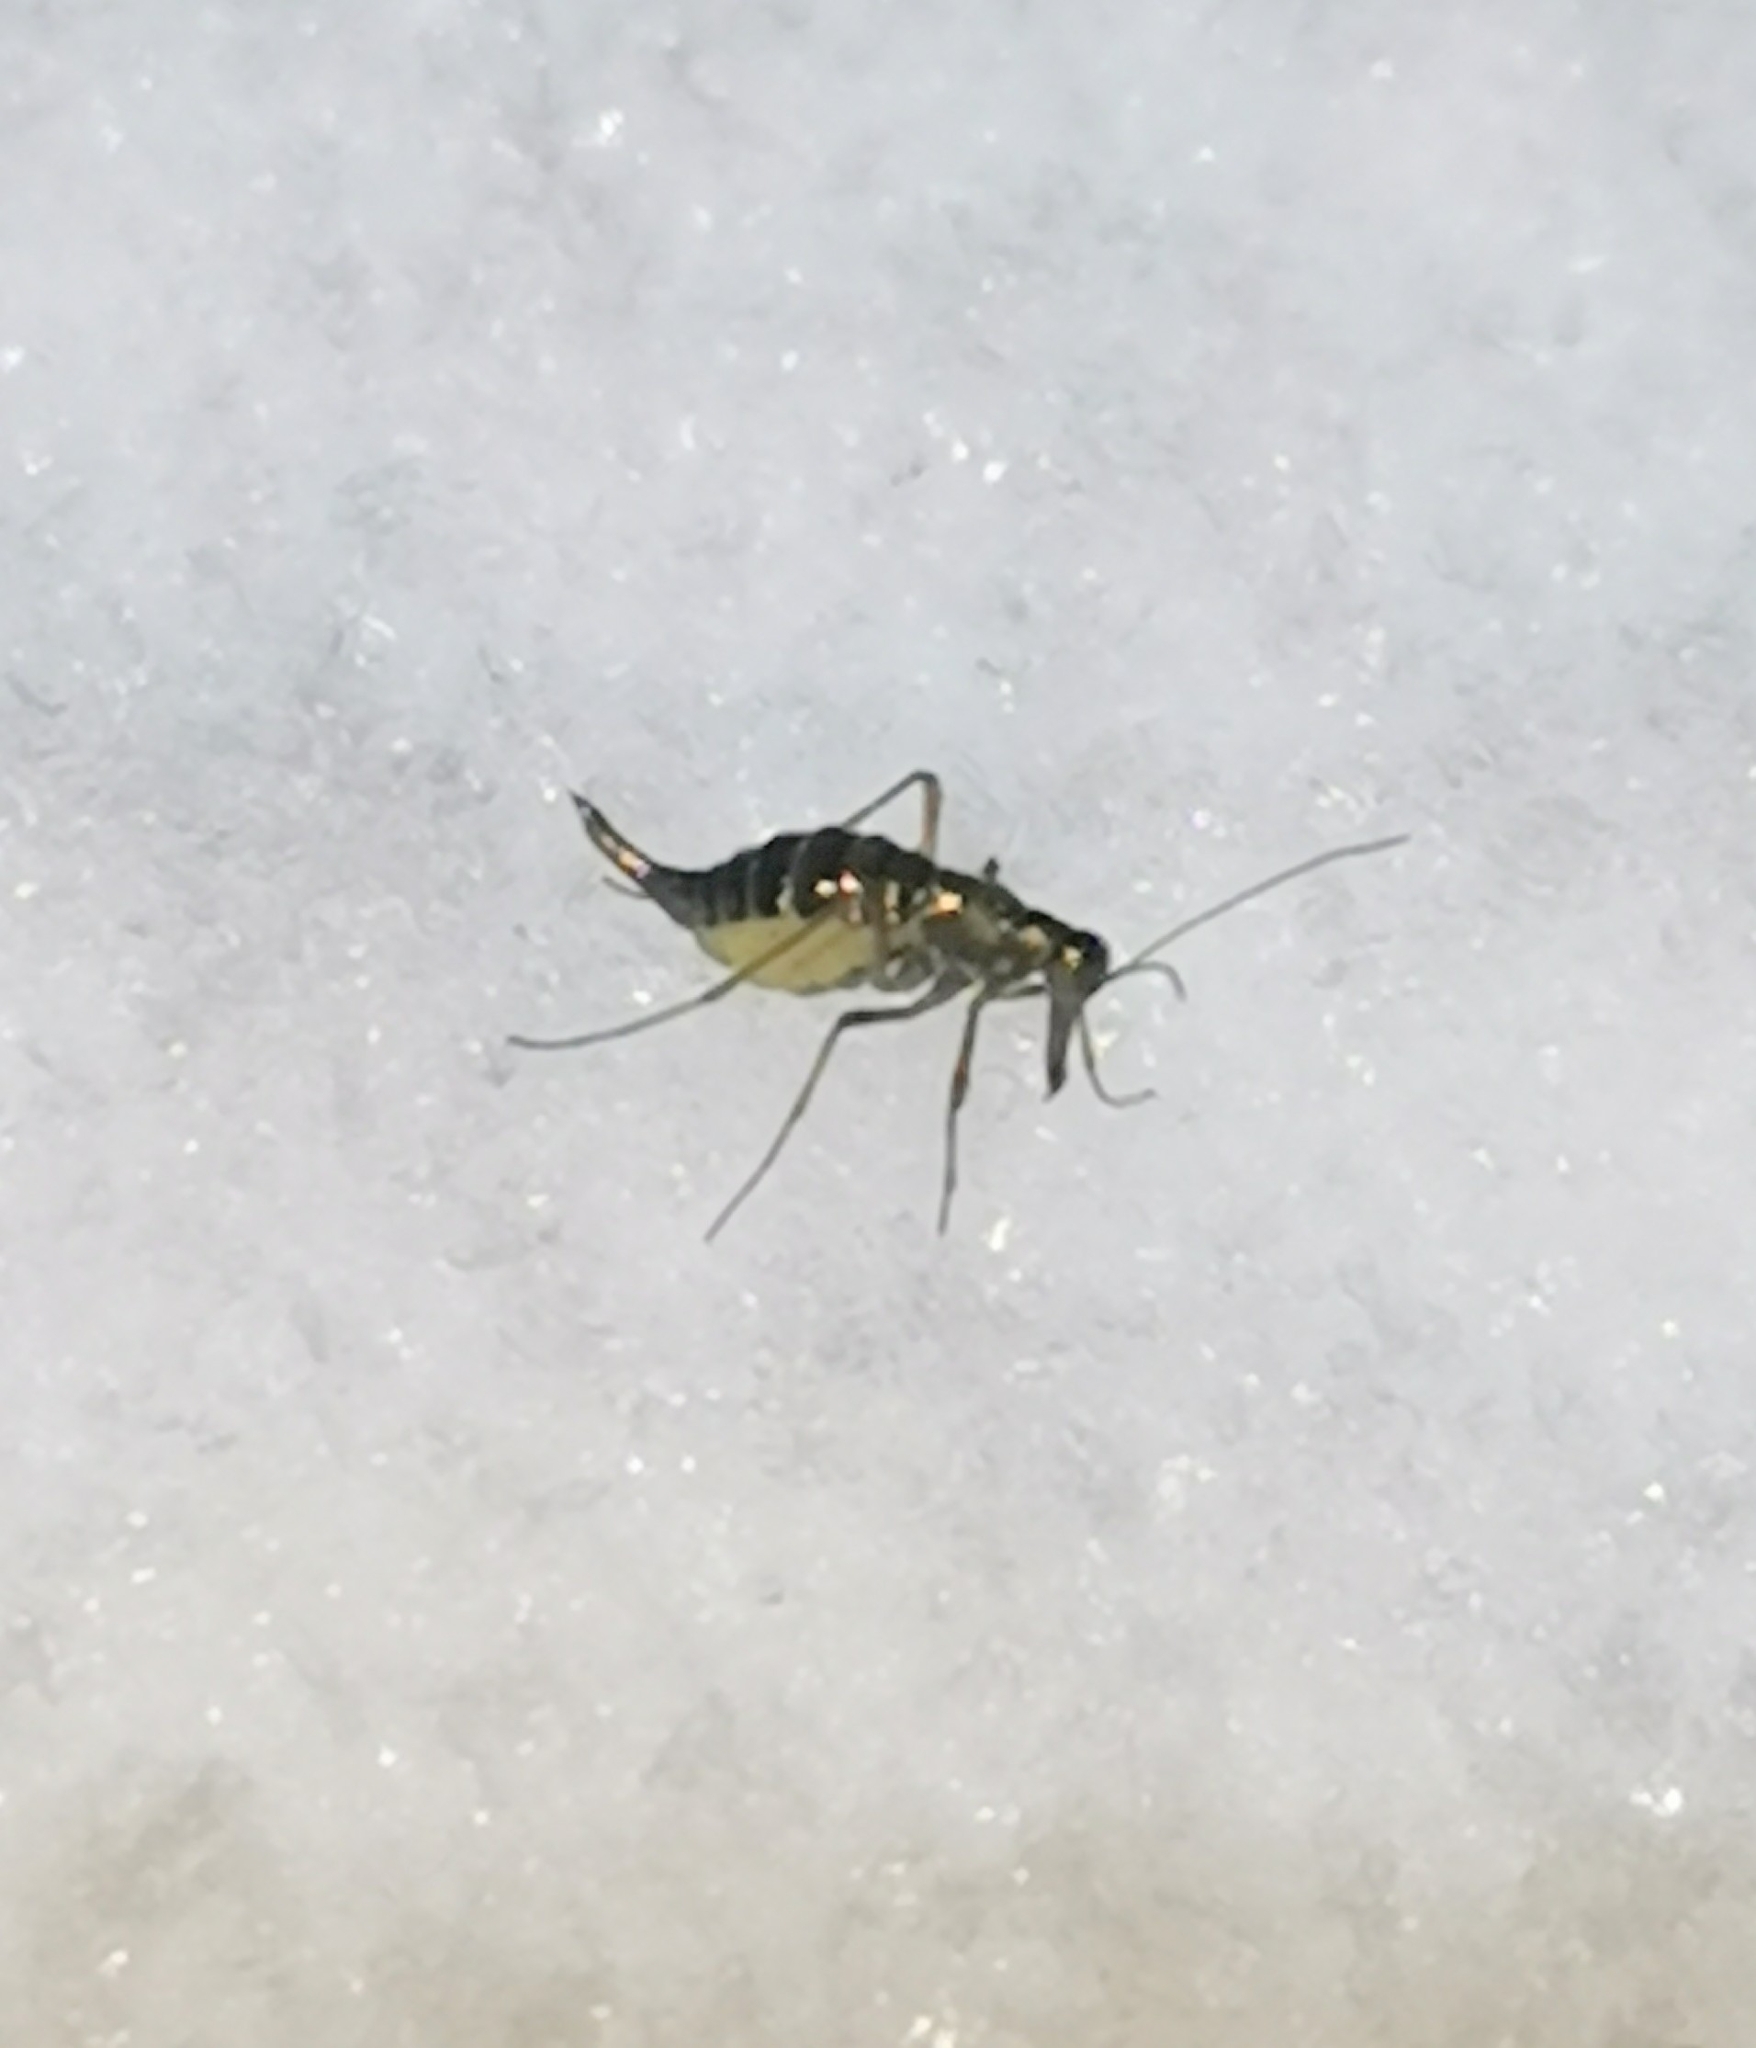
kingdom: Animalia
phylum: Arthropoda
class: Insecta
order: Mecoptera
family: Boreidae
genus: Boreus
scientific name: Boreus westwoodi
